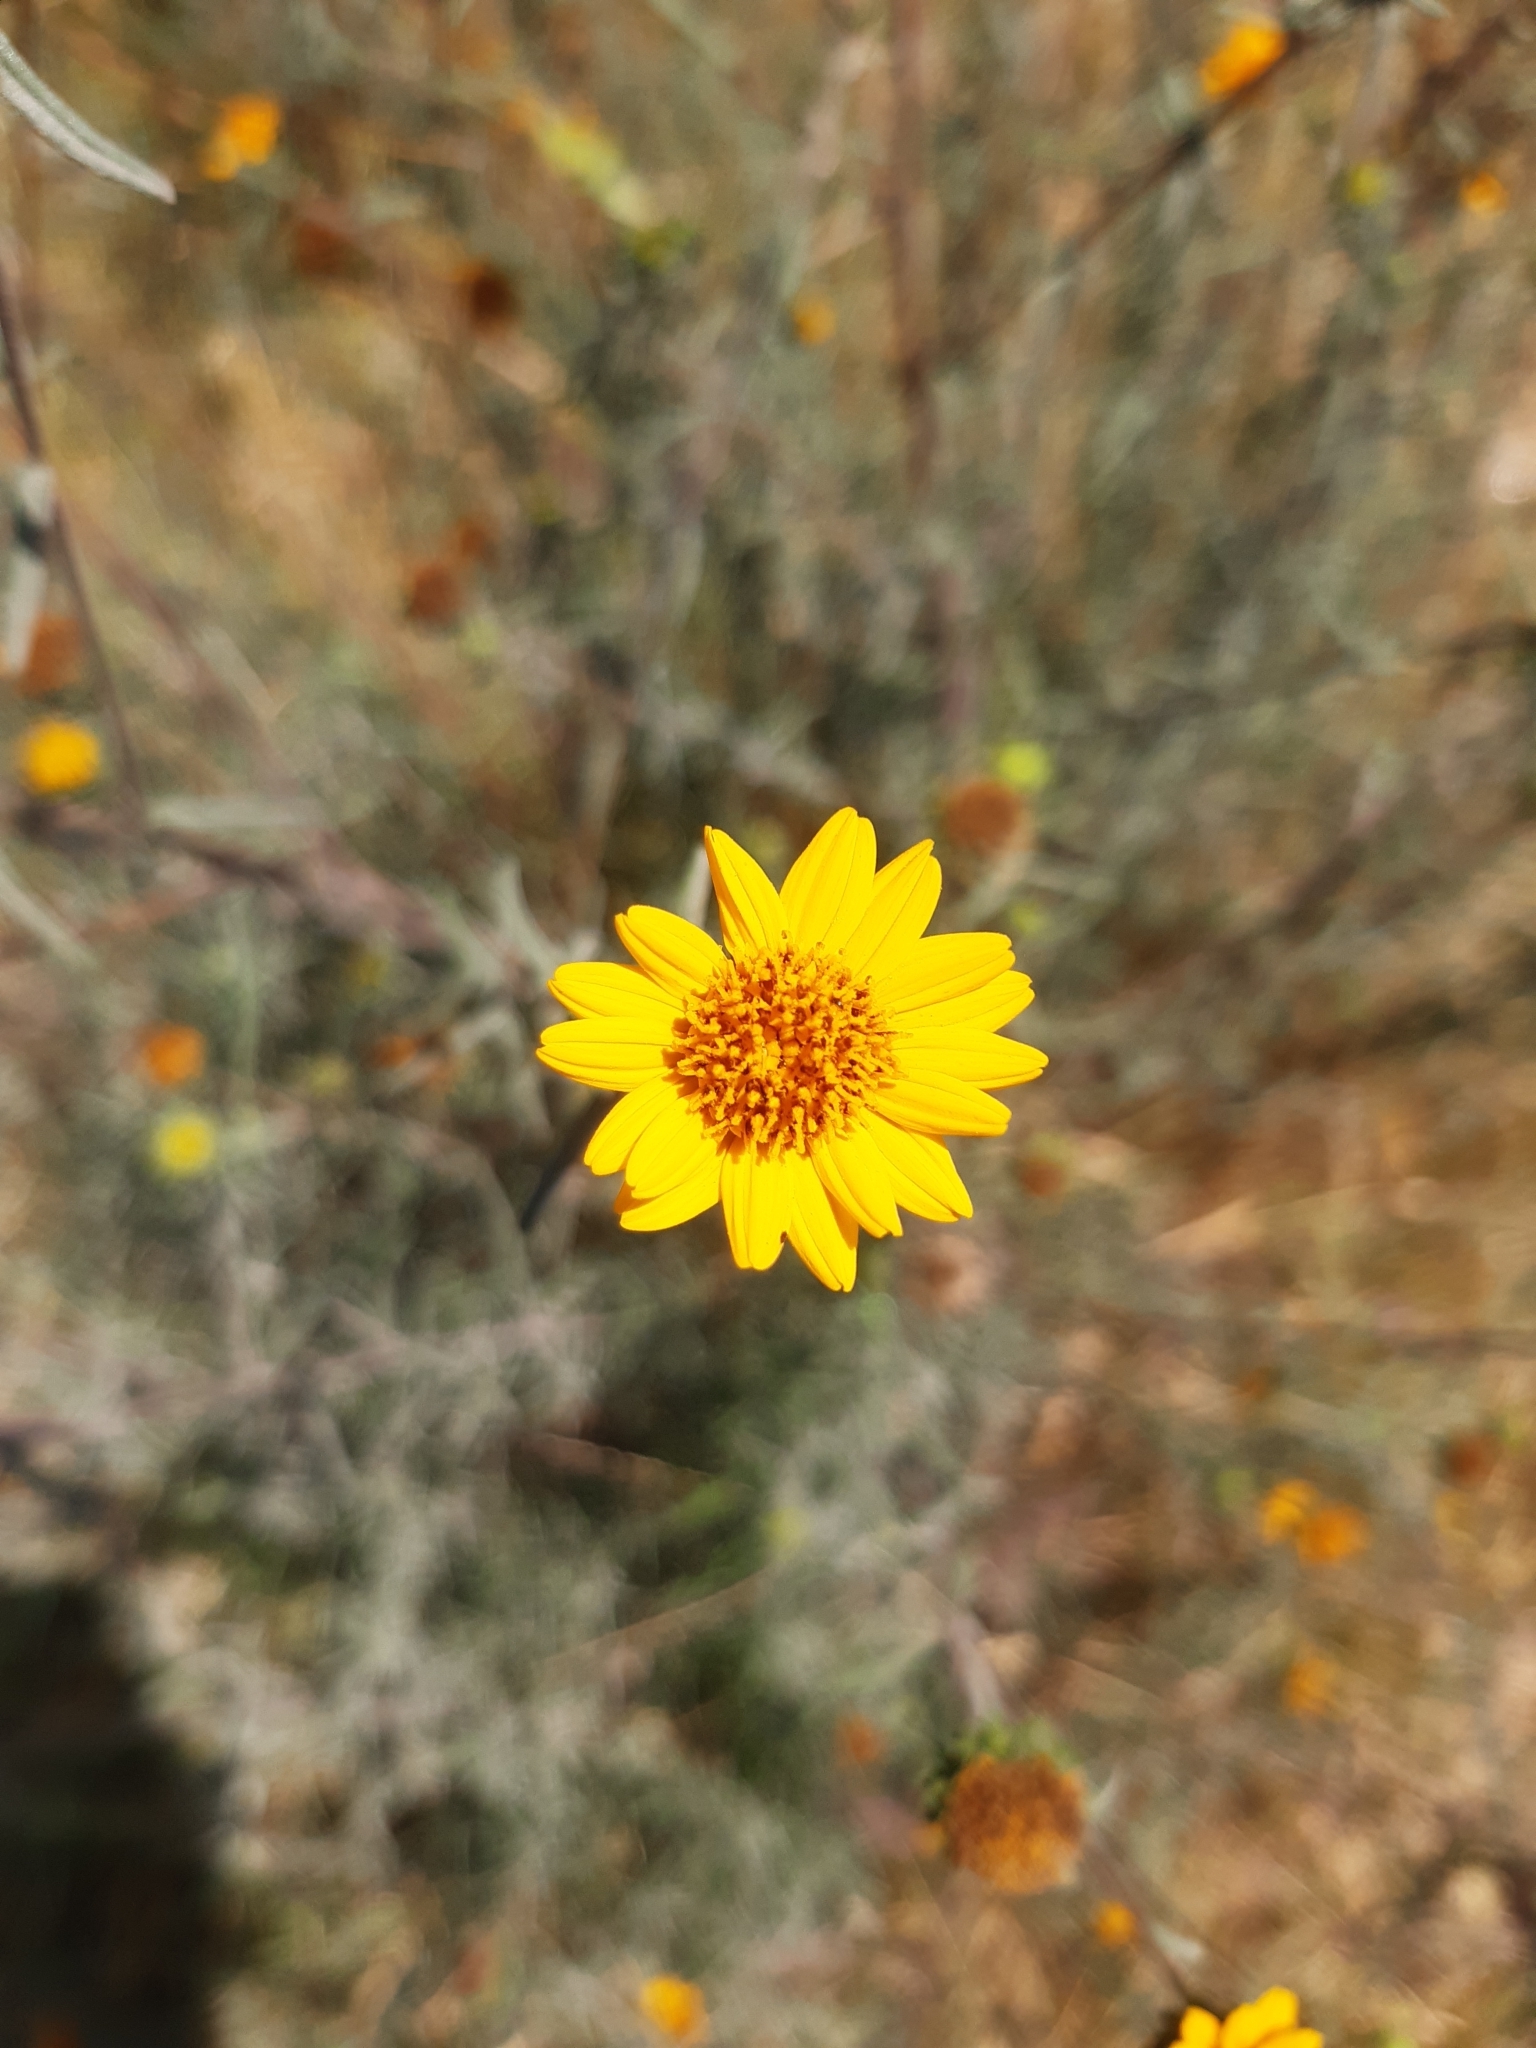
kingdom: Plantae
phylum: Tracheophyta
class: Magnoliopsida
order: Asterales
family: Asteraceae
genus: Aldama
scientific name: Aldama linearis
